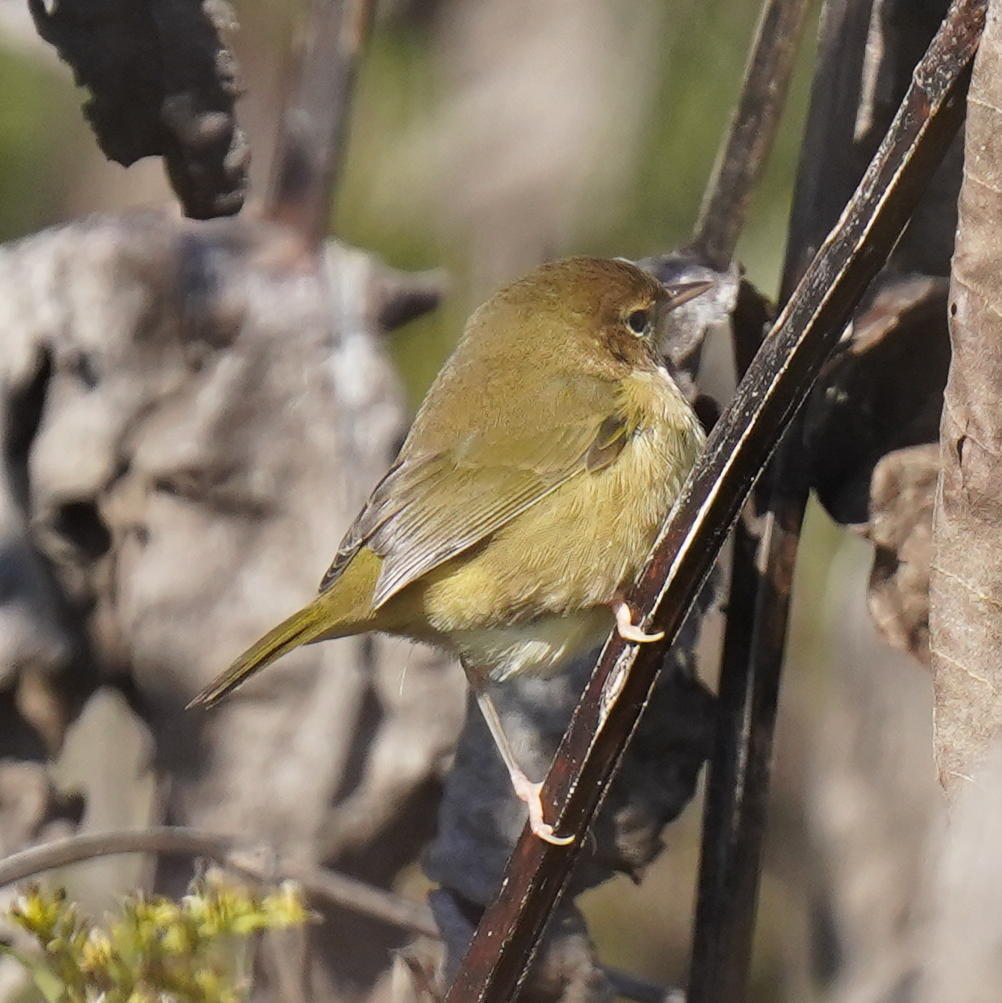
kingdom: Animalia
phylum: Chordata
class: Aves
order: Passeriformes
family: Parulidae
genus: Geothlypis
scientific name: Geothlypis trichas
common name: Common yellowthroat
